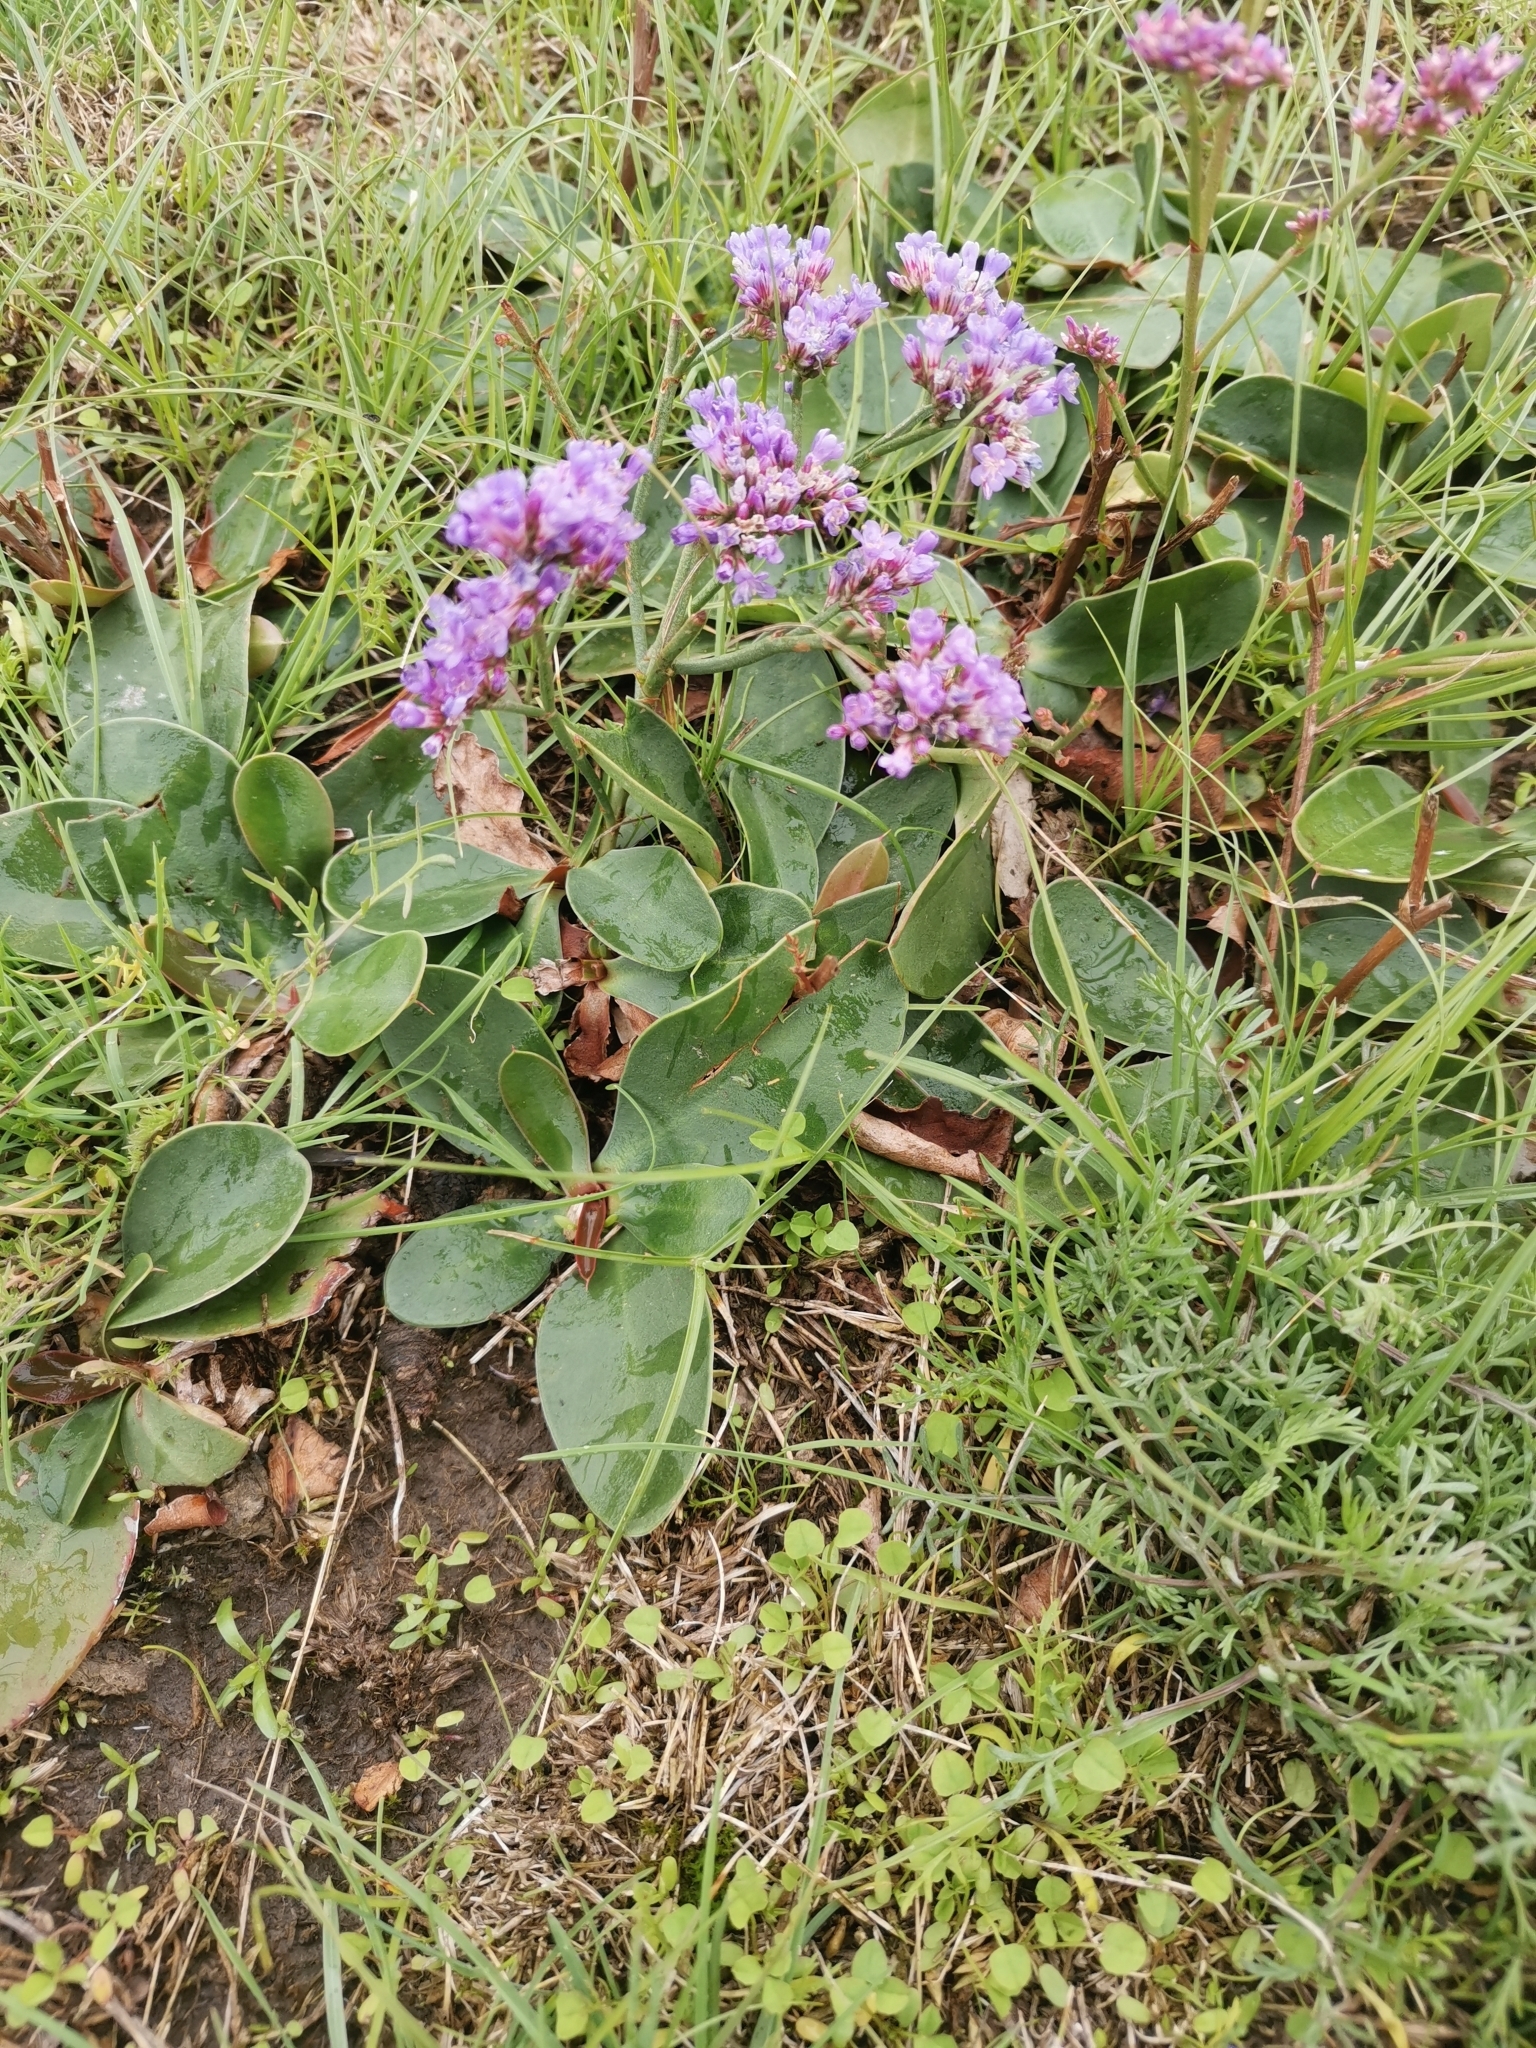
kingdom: Plantae
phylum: Tracheophyta
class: Magnoliopsida
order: Caryophyllales
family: Plumbaginaceae
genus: Limonium
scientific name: Limonium gmelini
